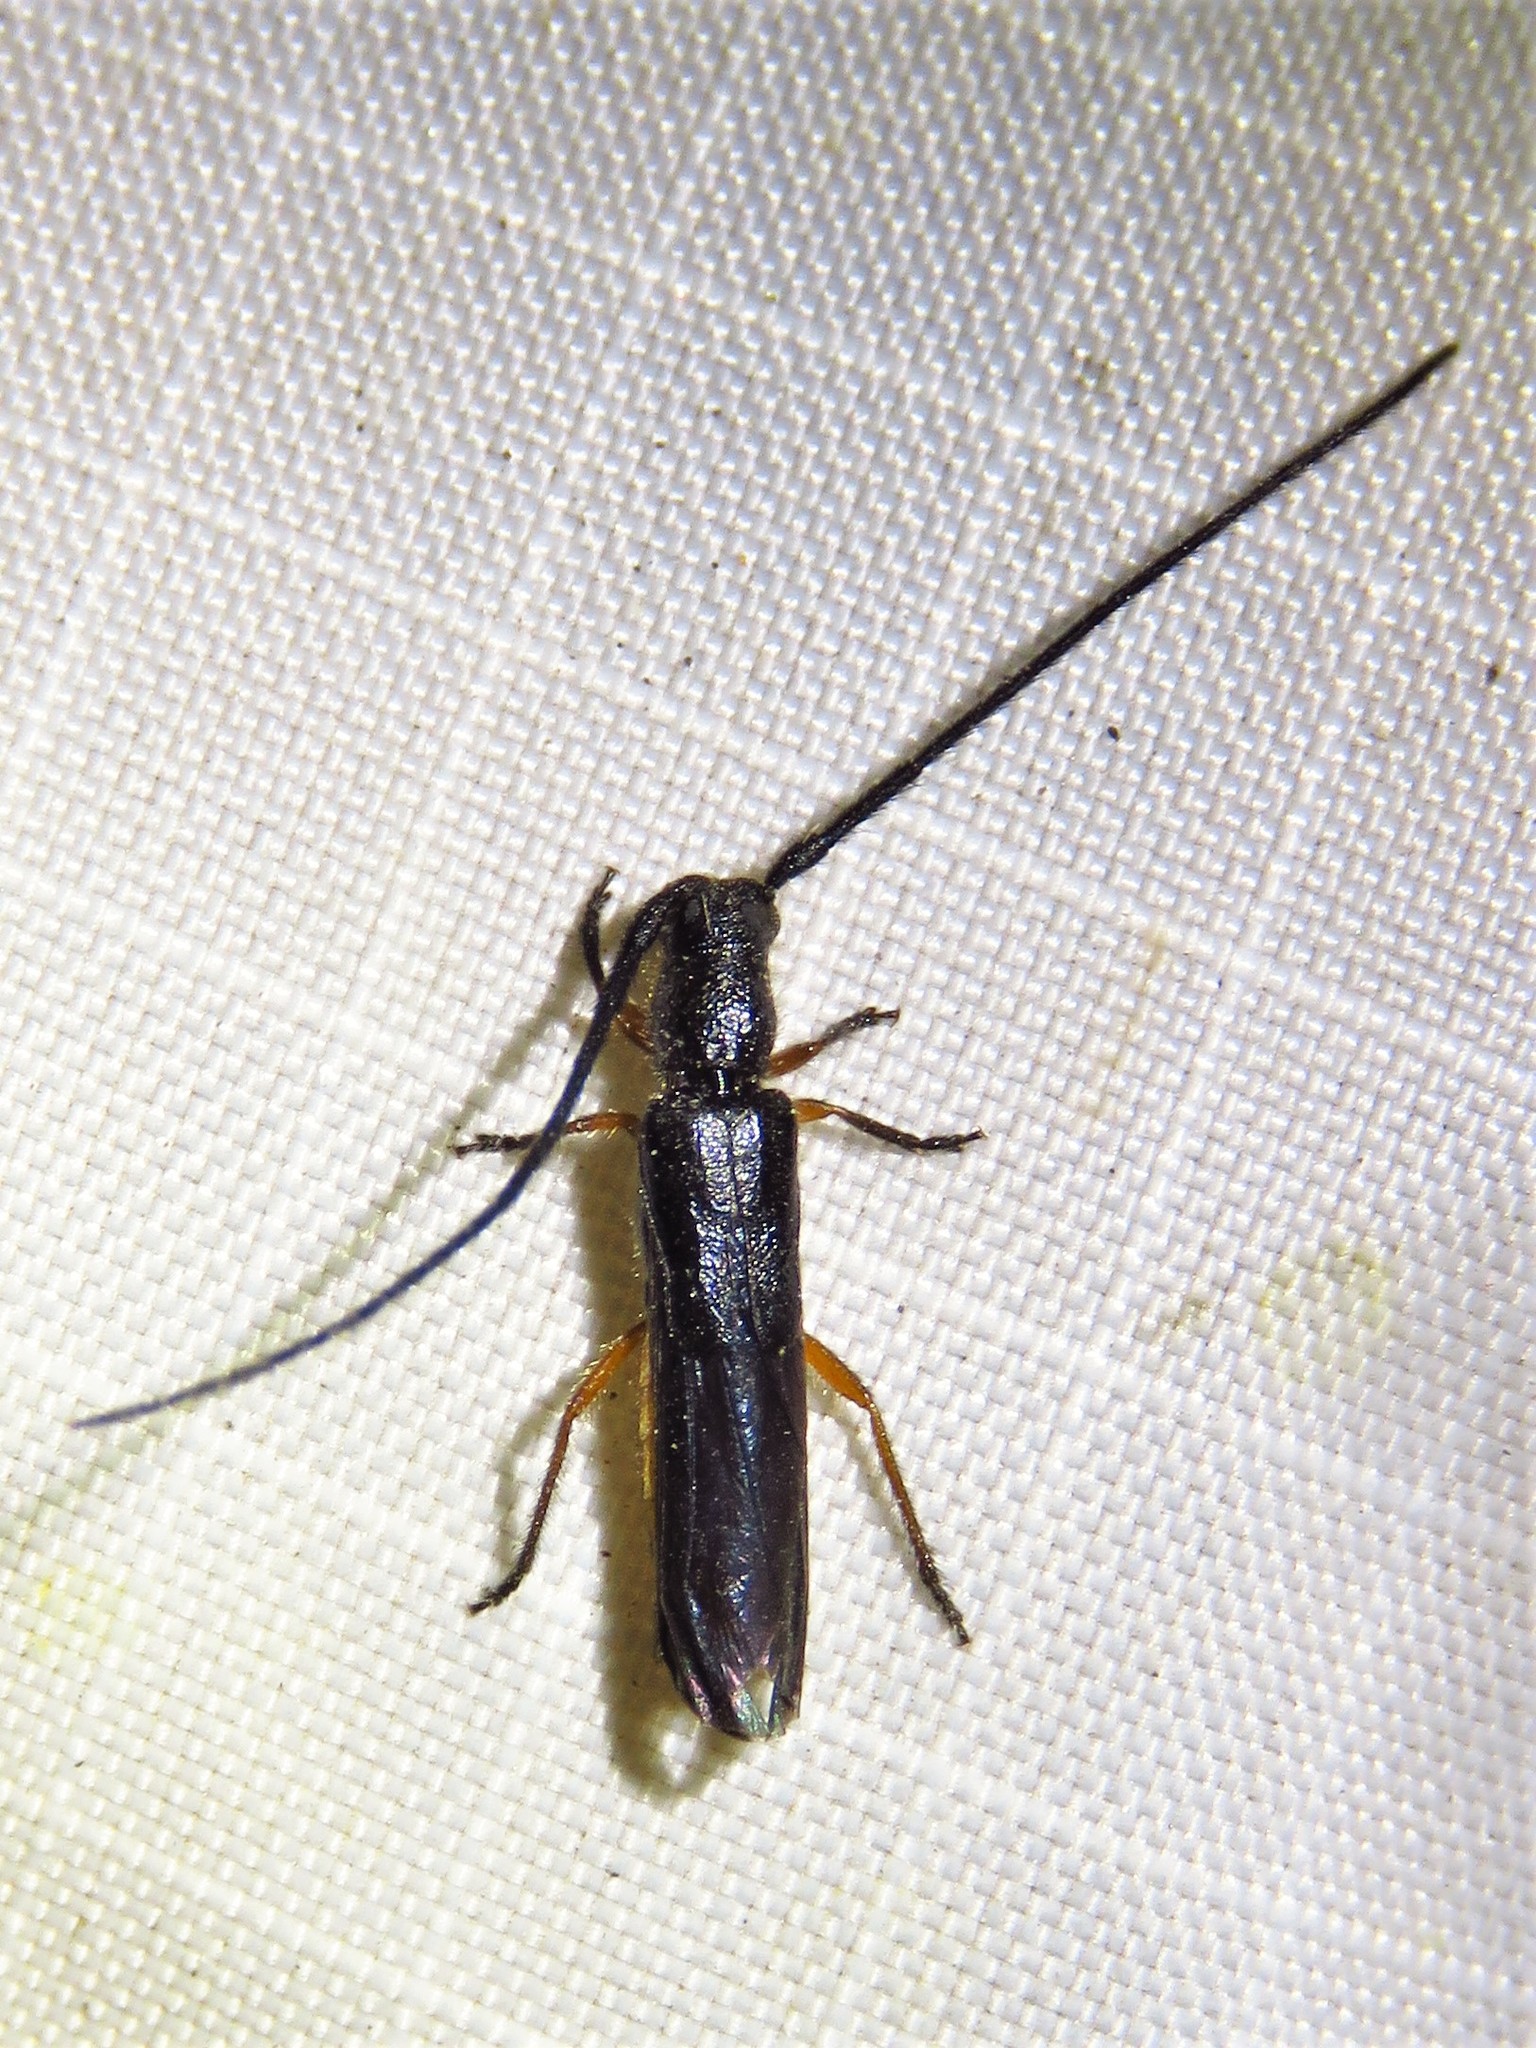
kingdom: Animalia
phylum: Arthropoda
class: Insecta
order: Coleoptera
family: Cerambycidae
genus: Methia
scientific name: Methia
